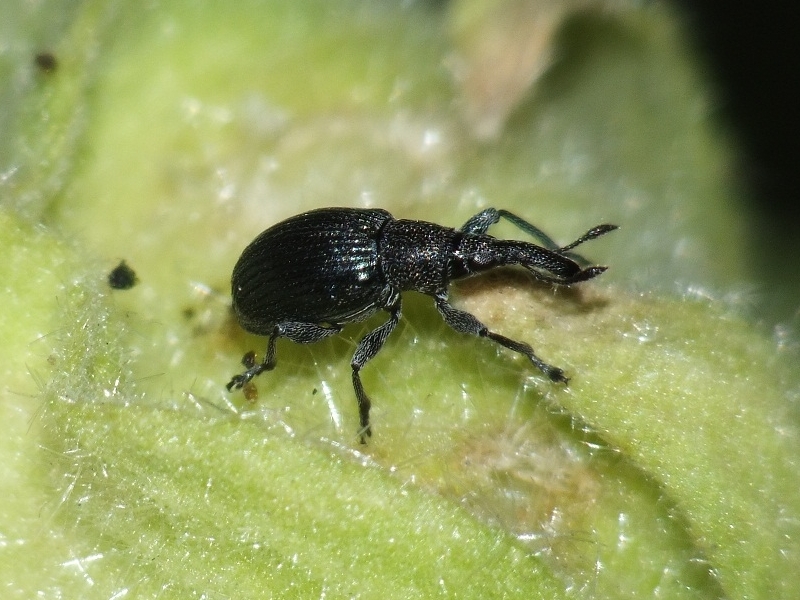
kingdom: Animalia
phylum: Arthropoda
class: Insecta
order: Coleoptera
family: Apionidae
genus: Aspidapion
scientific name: Aspidapion validum
